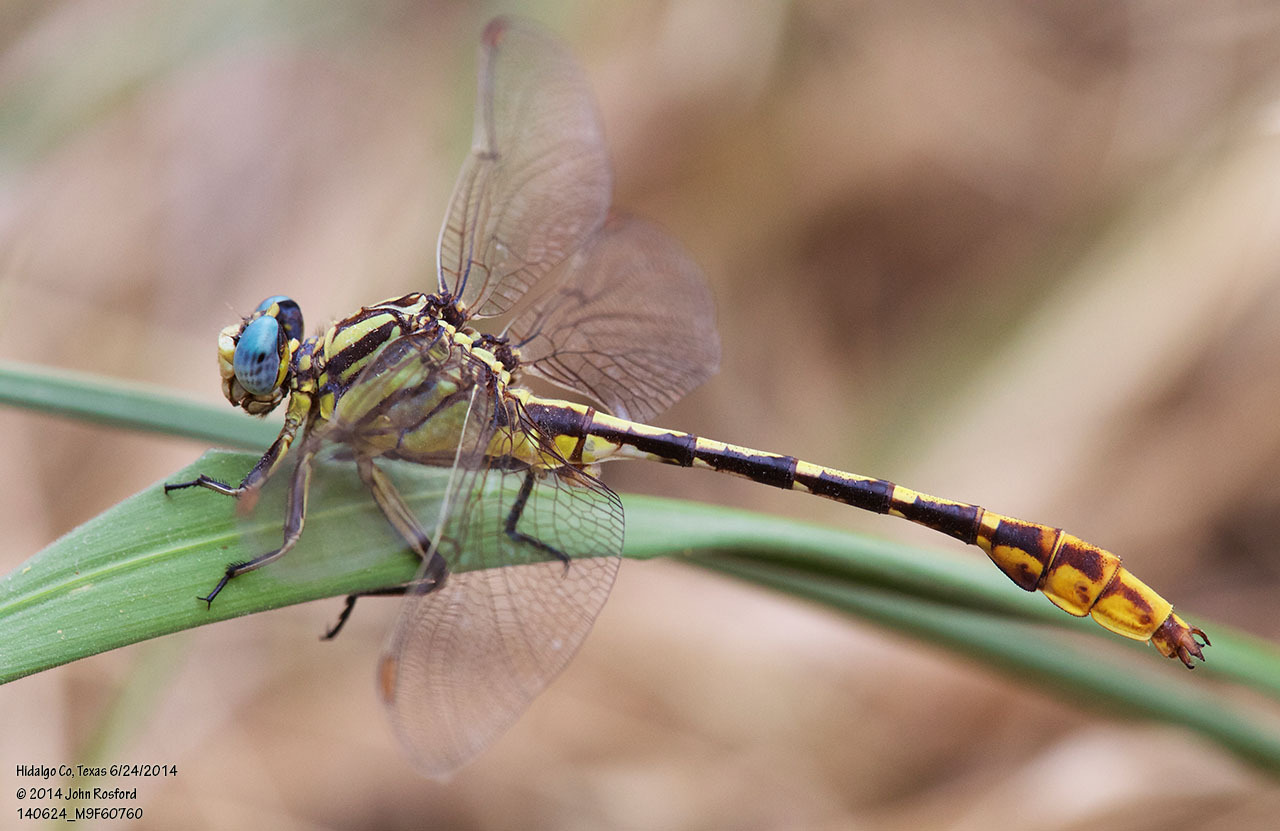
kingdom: Animalia
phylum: Arthropoda
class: Insecta
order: Odonata
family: Gomphidae
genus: Phanogomphus
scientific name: Phanogomphus militaris
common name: Sulphur-tipped clubtail
